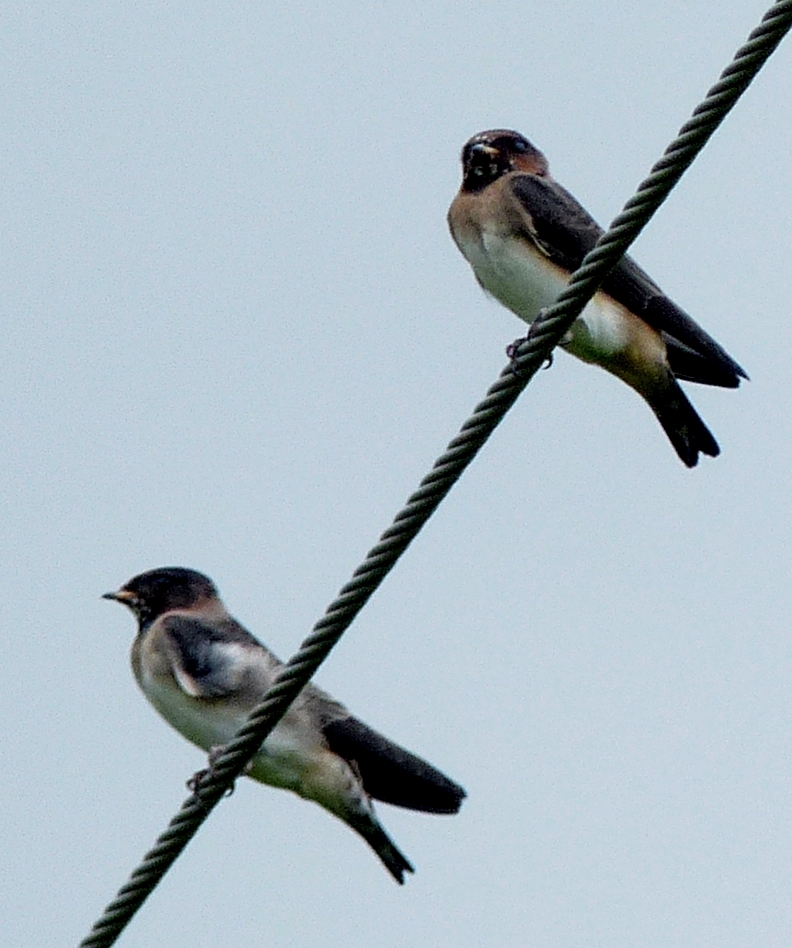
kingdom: Animalia
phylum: Chordata
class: Aves
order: Passeriformes
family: Hirundinidae
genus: Petrochelidon
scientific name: Petrochelidon pyrrhonota
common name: American cliff swallow
